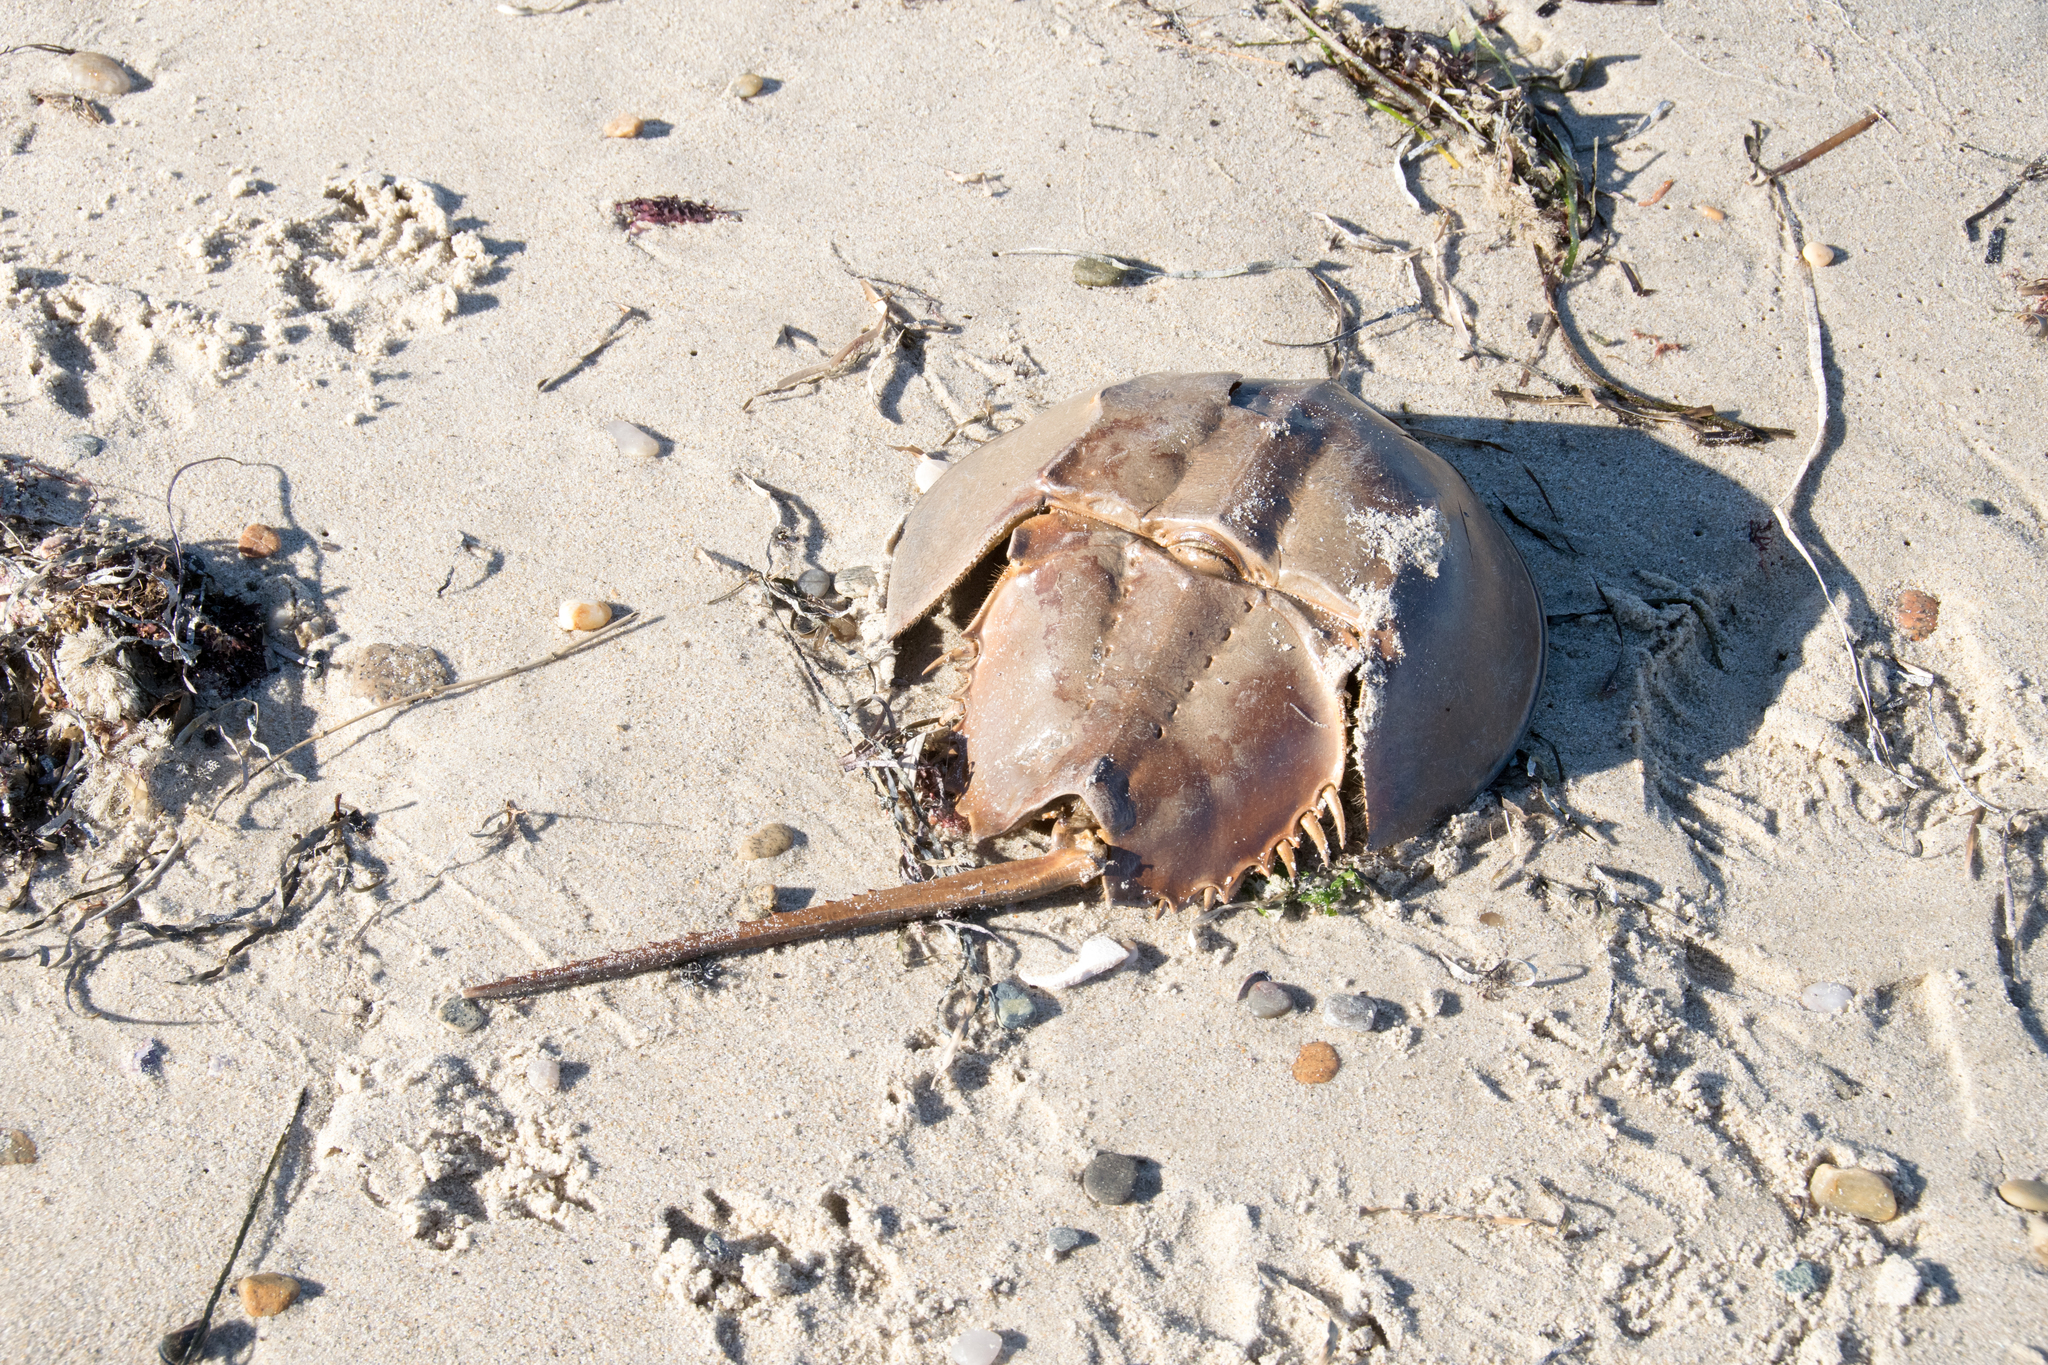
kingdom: Animalia
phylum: Arthropoda
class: Merostomata
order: Xiphosurida
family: Limulidae
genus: Limulus
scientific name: Limulus polyphemus
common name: Horseshoe crab
